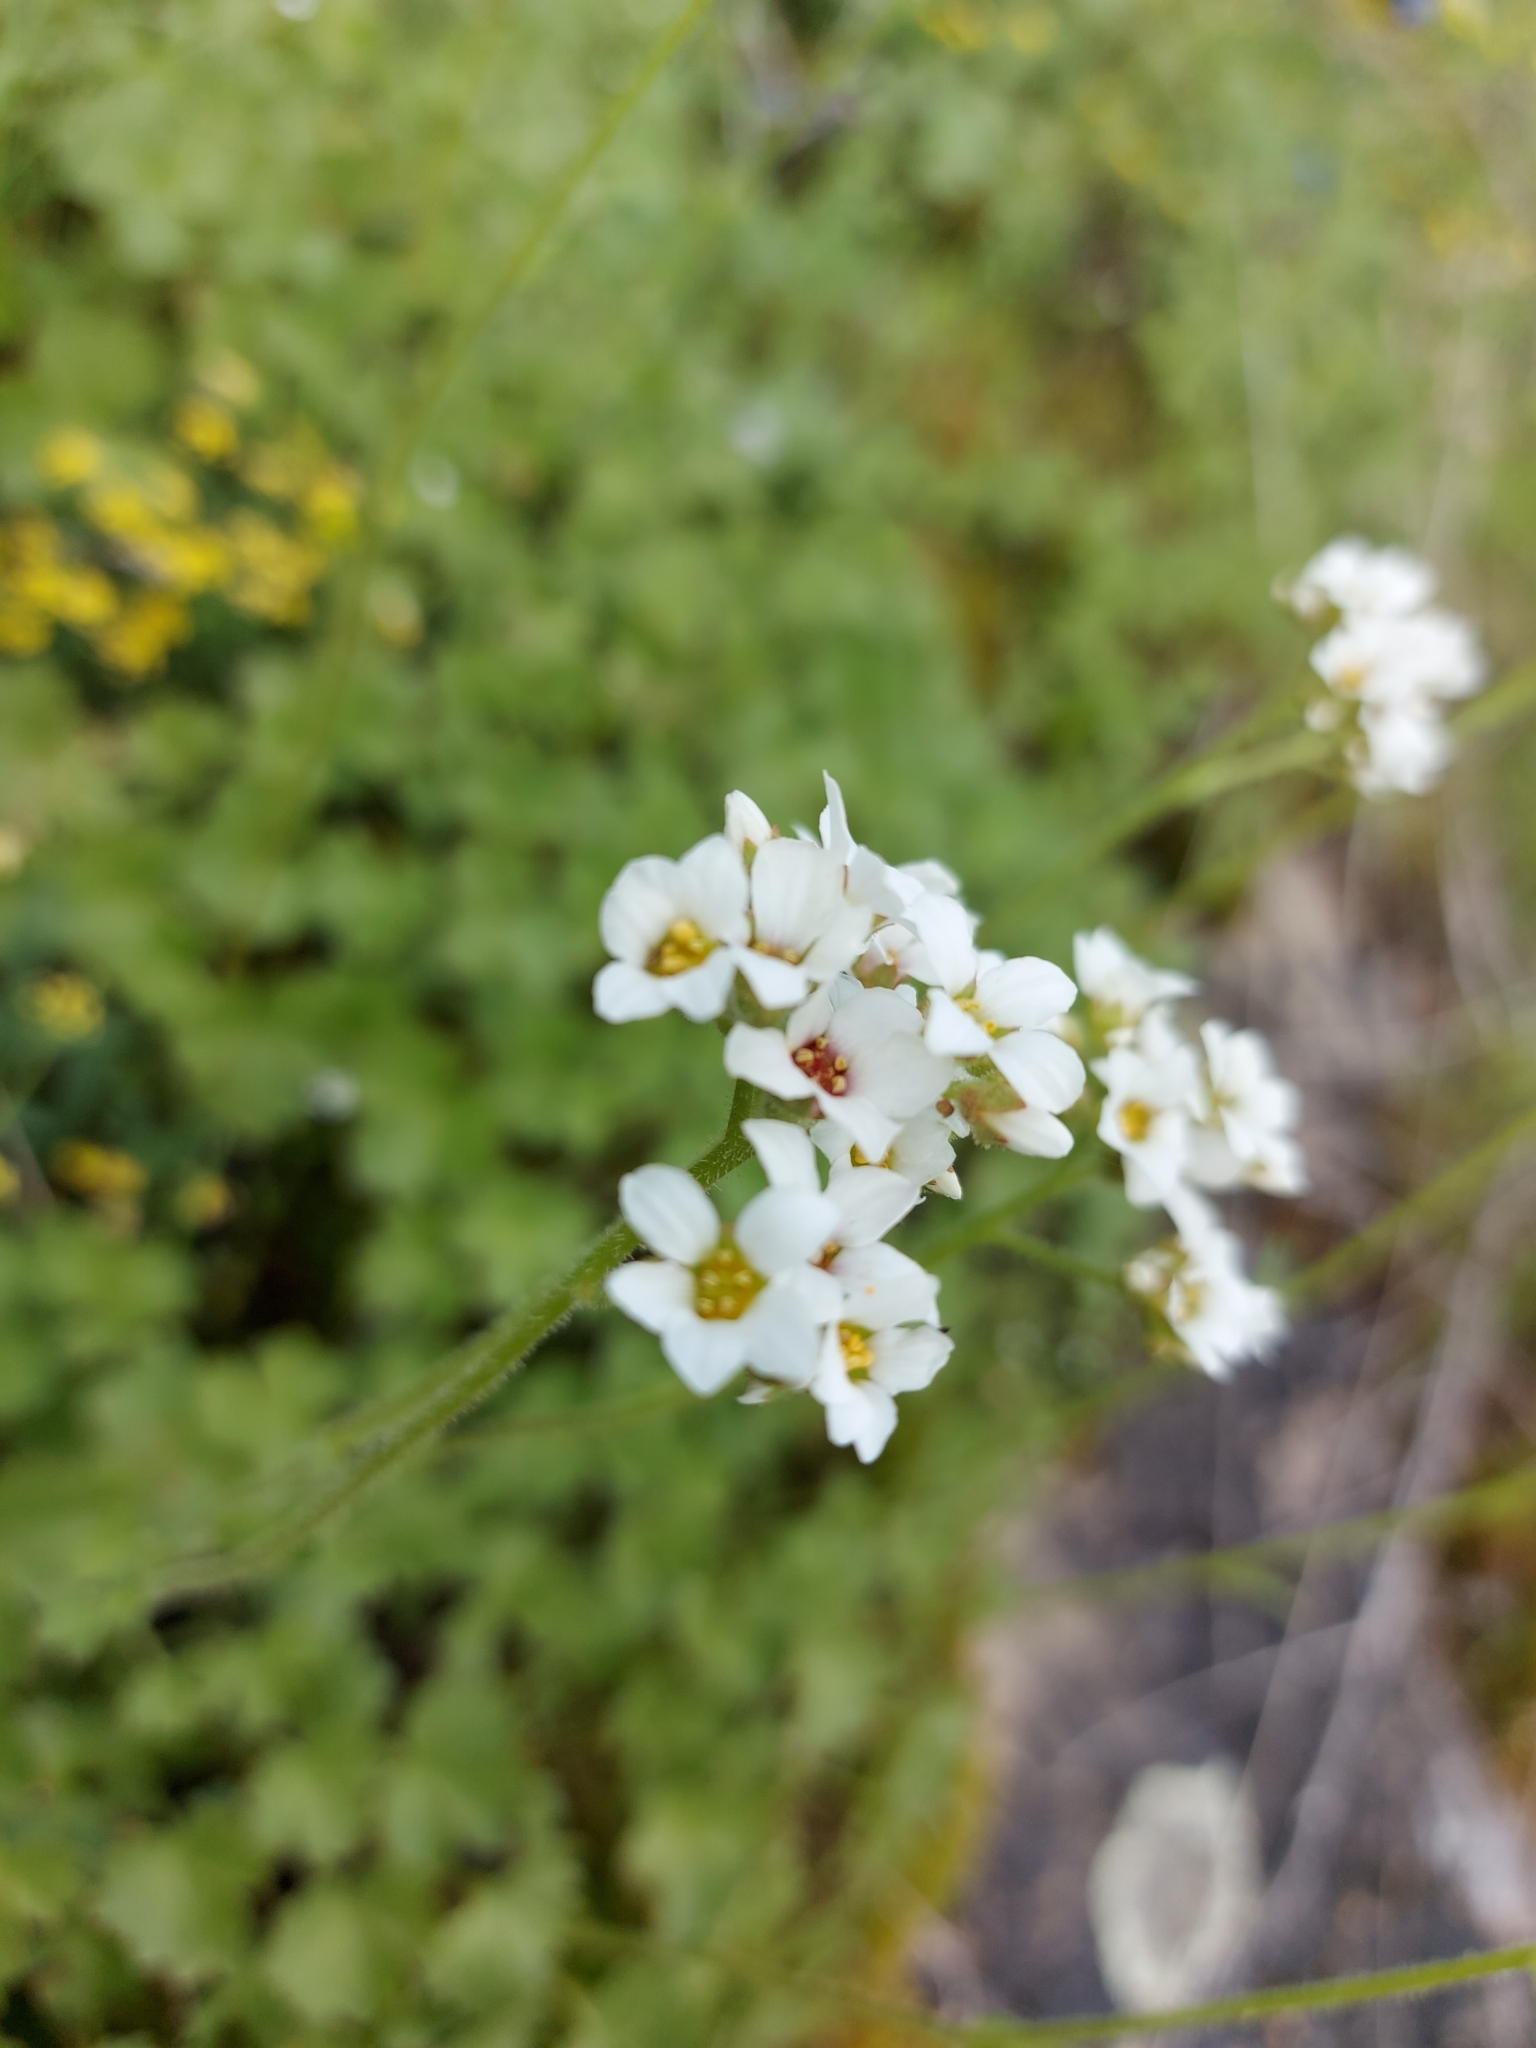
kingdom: Plantae
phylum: Tracheophyta
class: Magnoliopsida
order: Saxifragales
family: Saxifragaceae
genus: Hemieva
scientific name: Hemieva ranunculifolia
